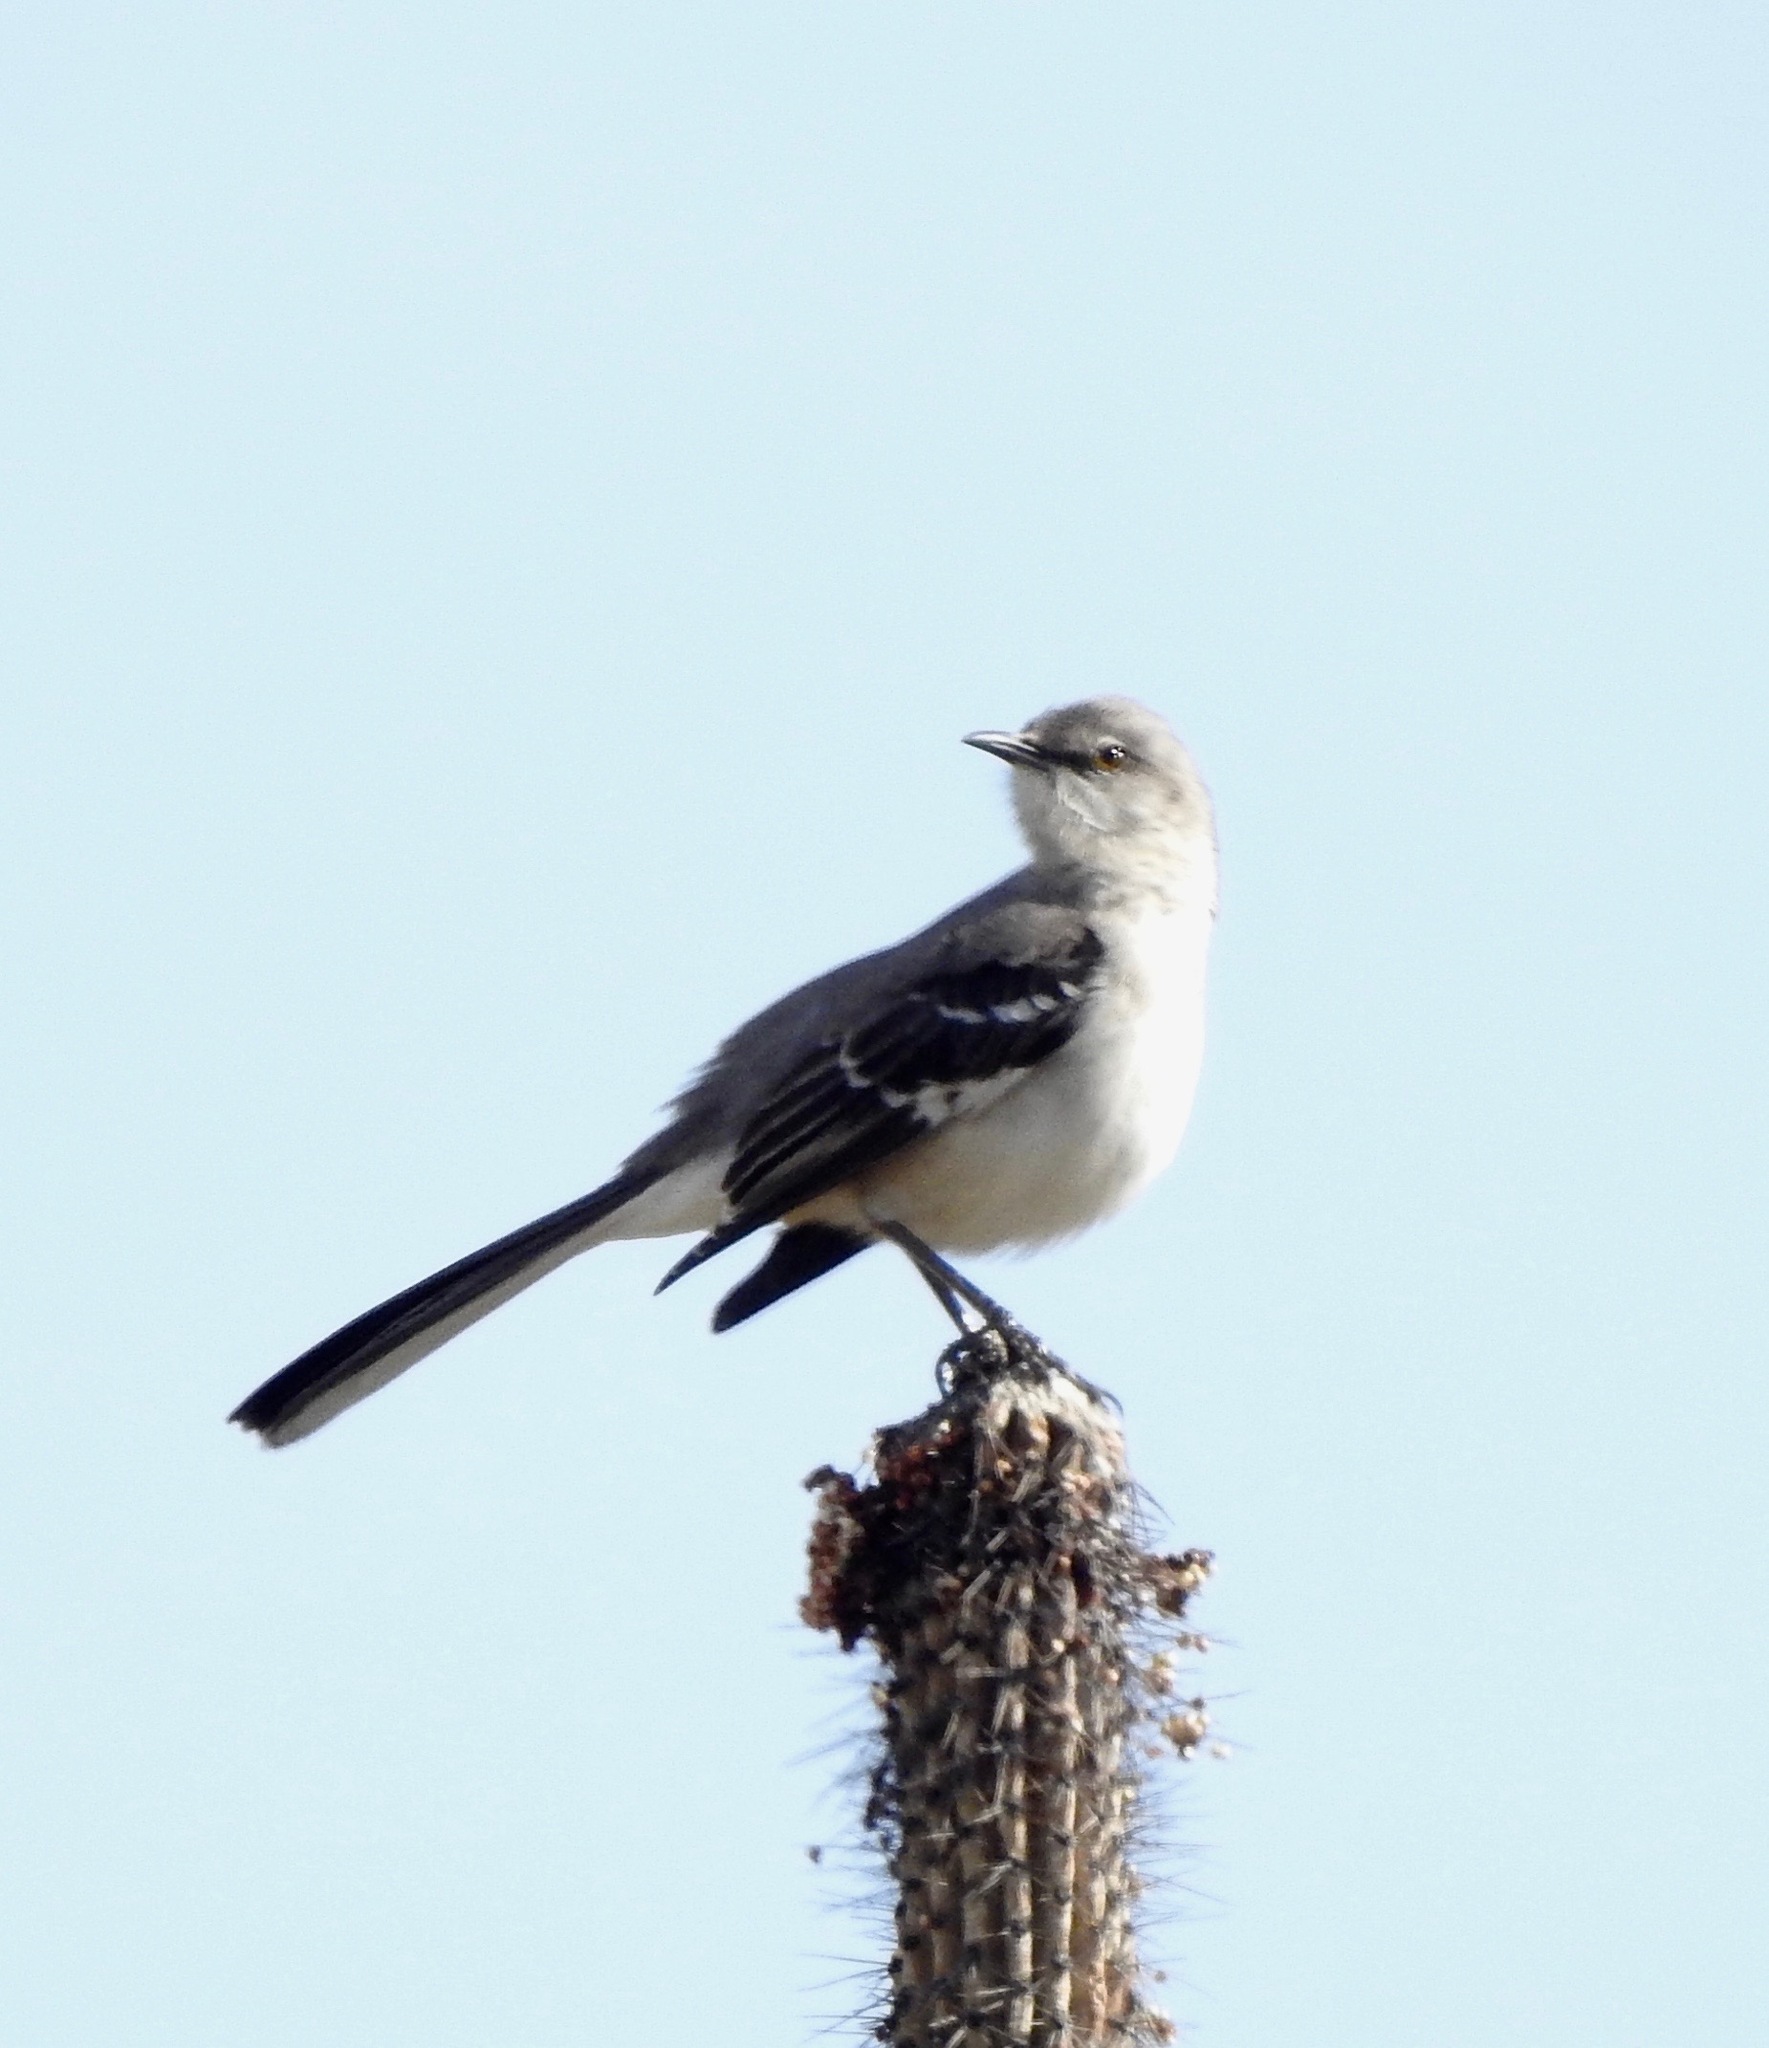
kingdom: Animalia
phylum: Chordata
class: Aves
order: Passeriformes
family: Mimidae
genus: Mimus
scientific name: Mimus polyglottos
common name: Northern mockingbird
